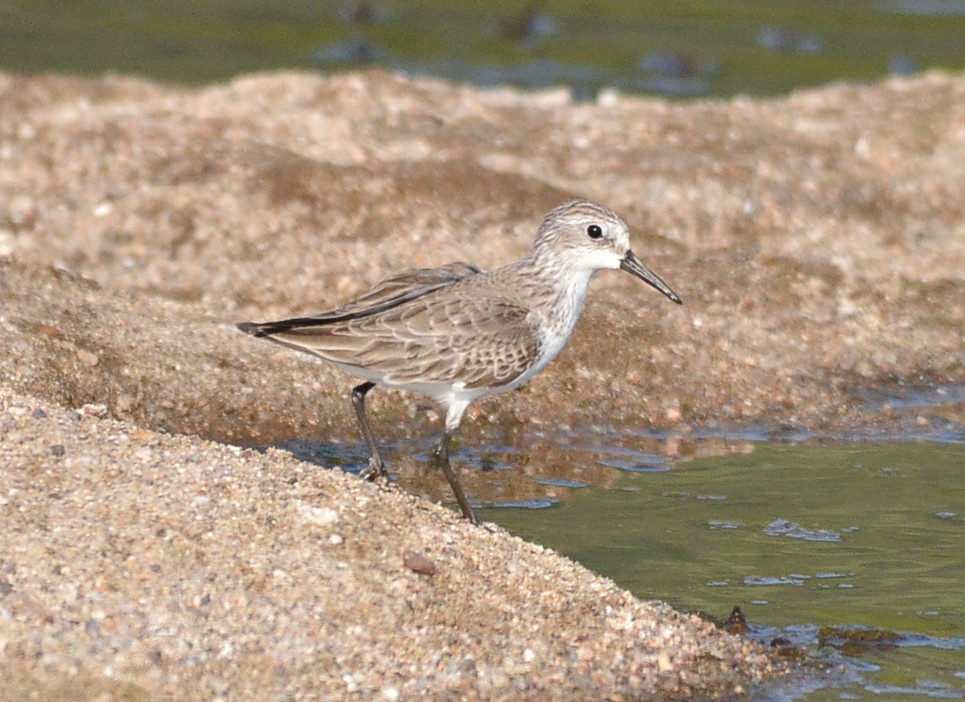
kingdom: Animalia
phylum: Chordata
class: Aves
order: Charadriiformes
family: Scolopacidae
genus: Calidris
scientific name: Calidris mauri
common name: Western sandpiper
